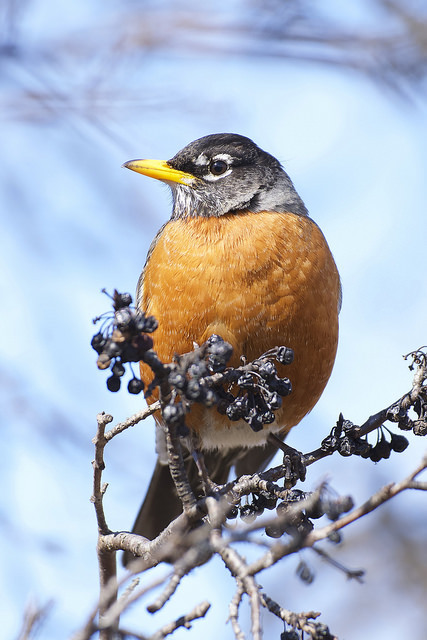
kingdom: Animalia
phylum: Chordata
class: Aves
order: Passeriformes
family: Turdidae
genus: Turdus
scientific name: Turdus migratorius
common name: American robin
